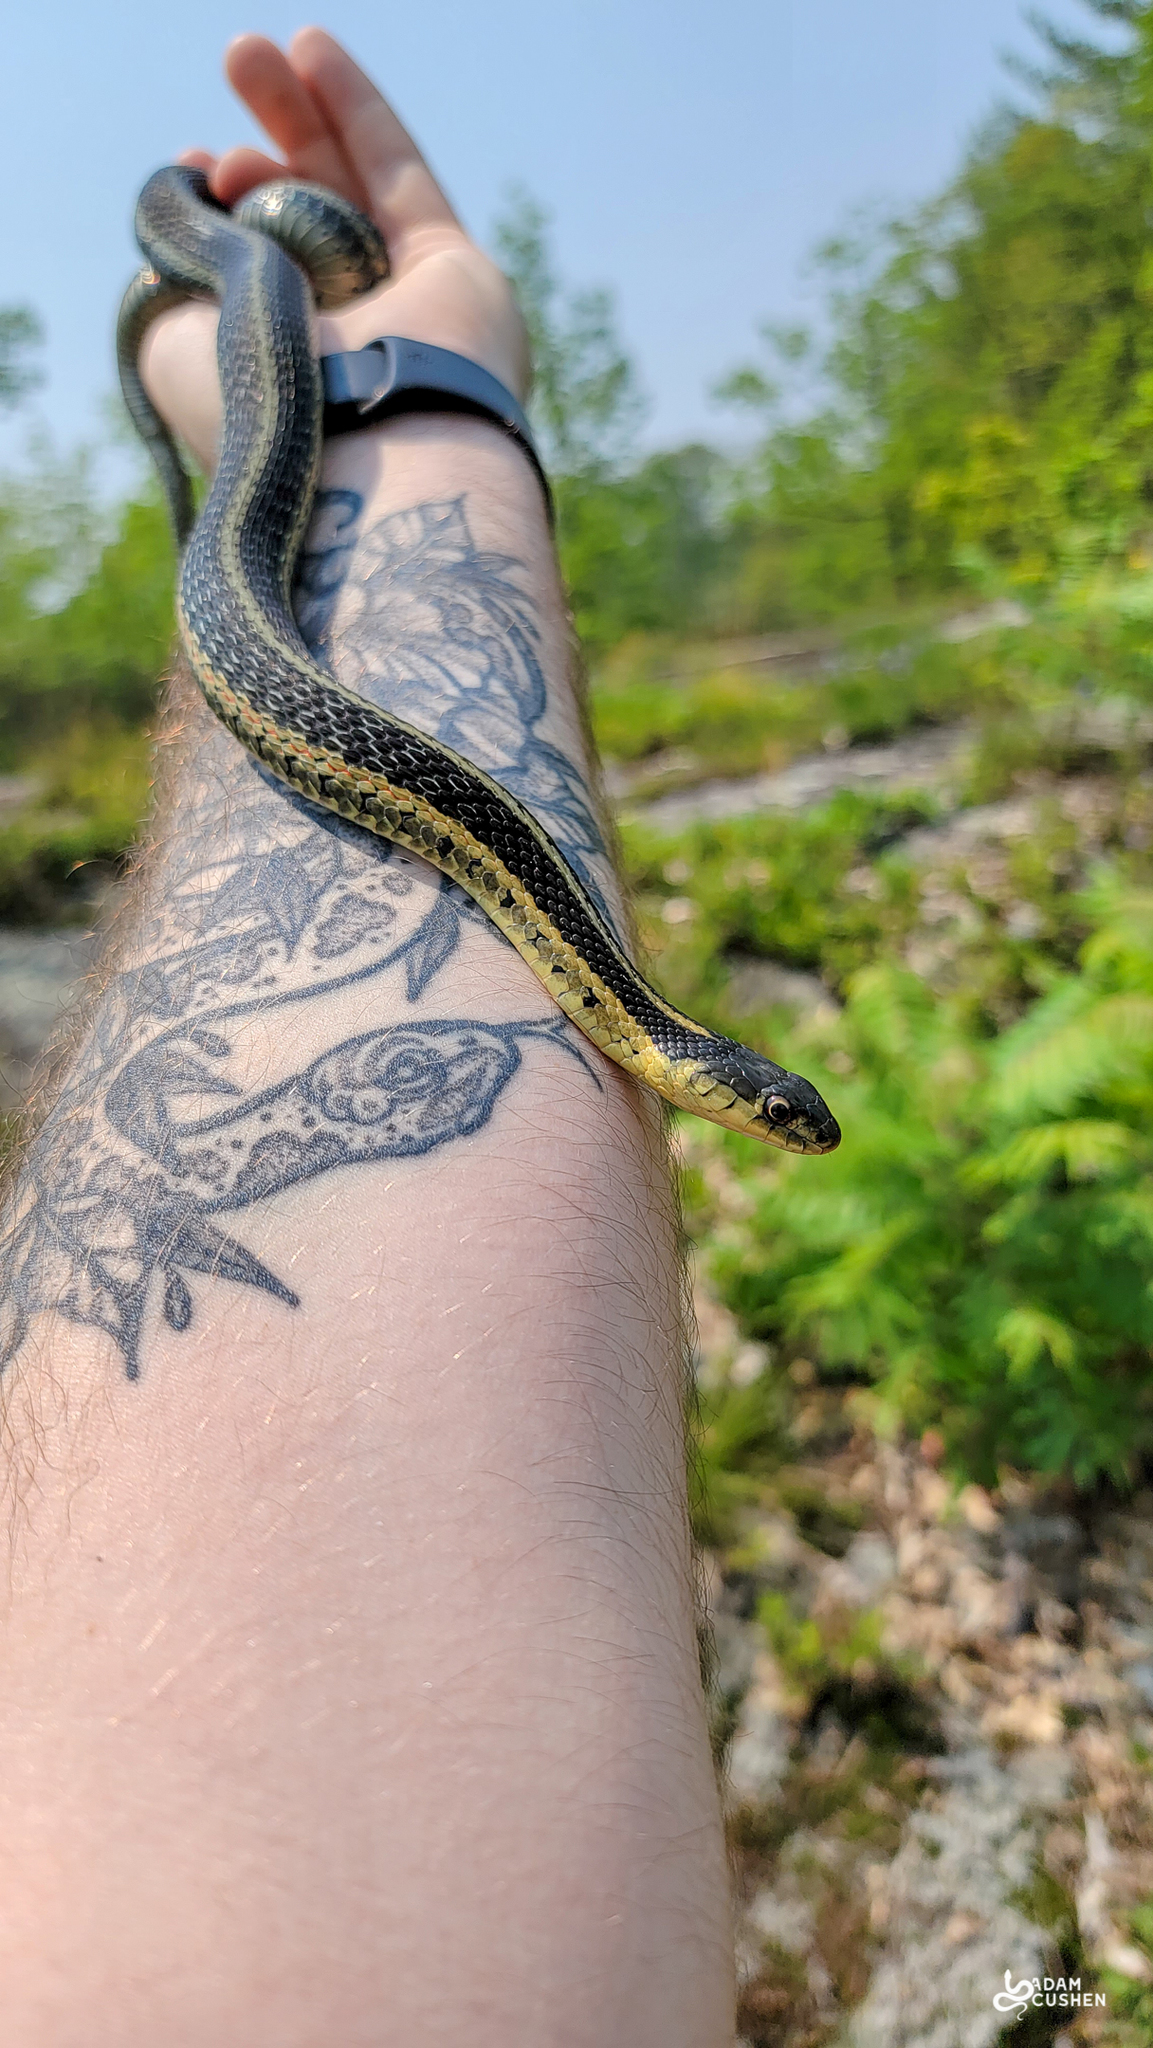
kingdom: Animalia
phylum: Chordata
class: Squamata
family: Colubridae
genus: Thamnophis
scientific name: Thamnophis sirtalis
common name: Common garter snake
